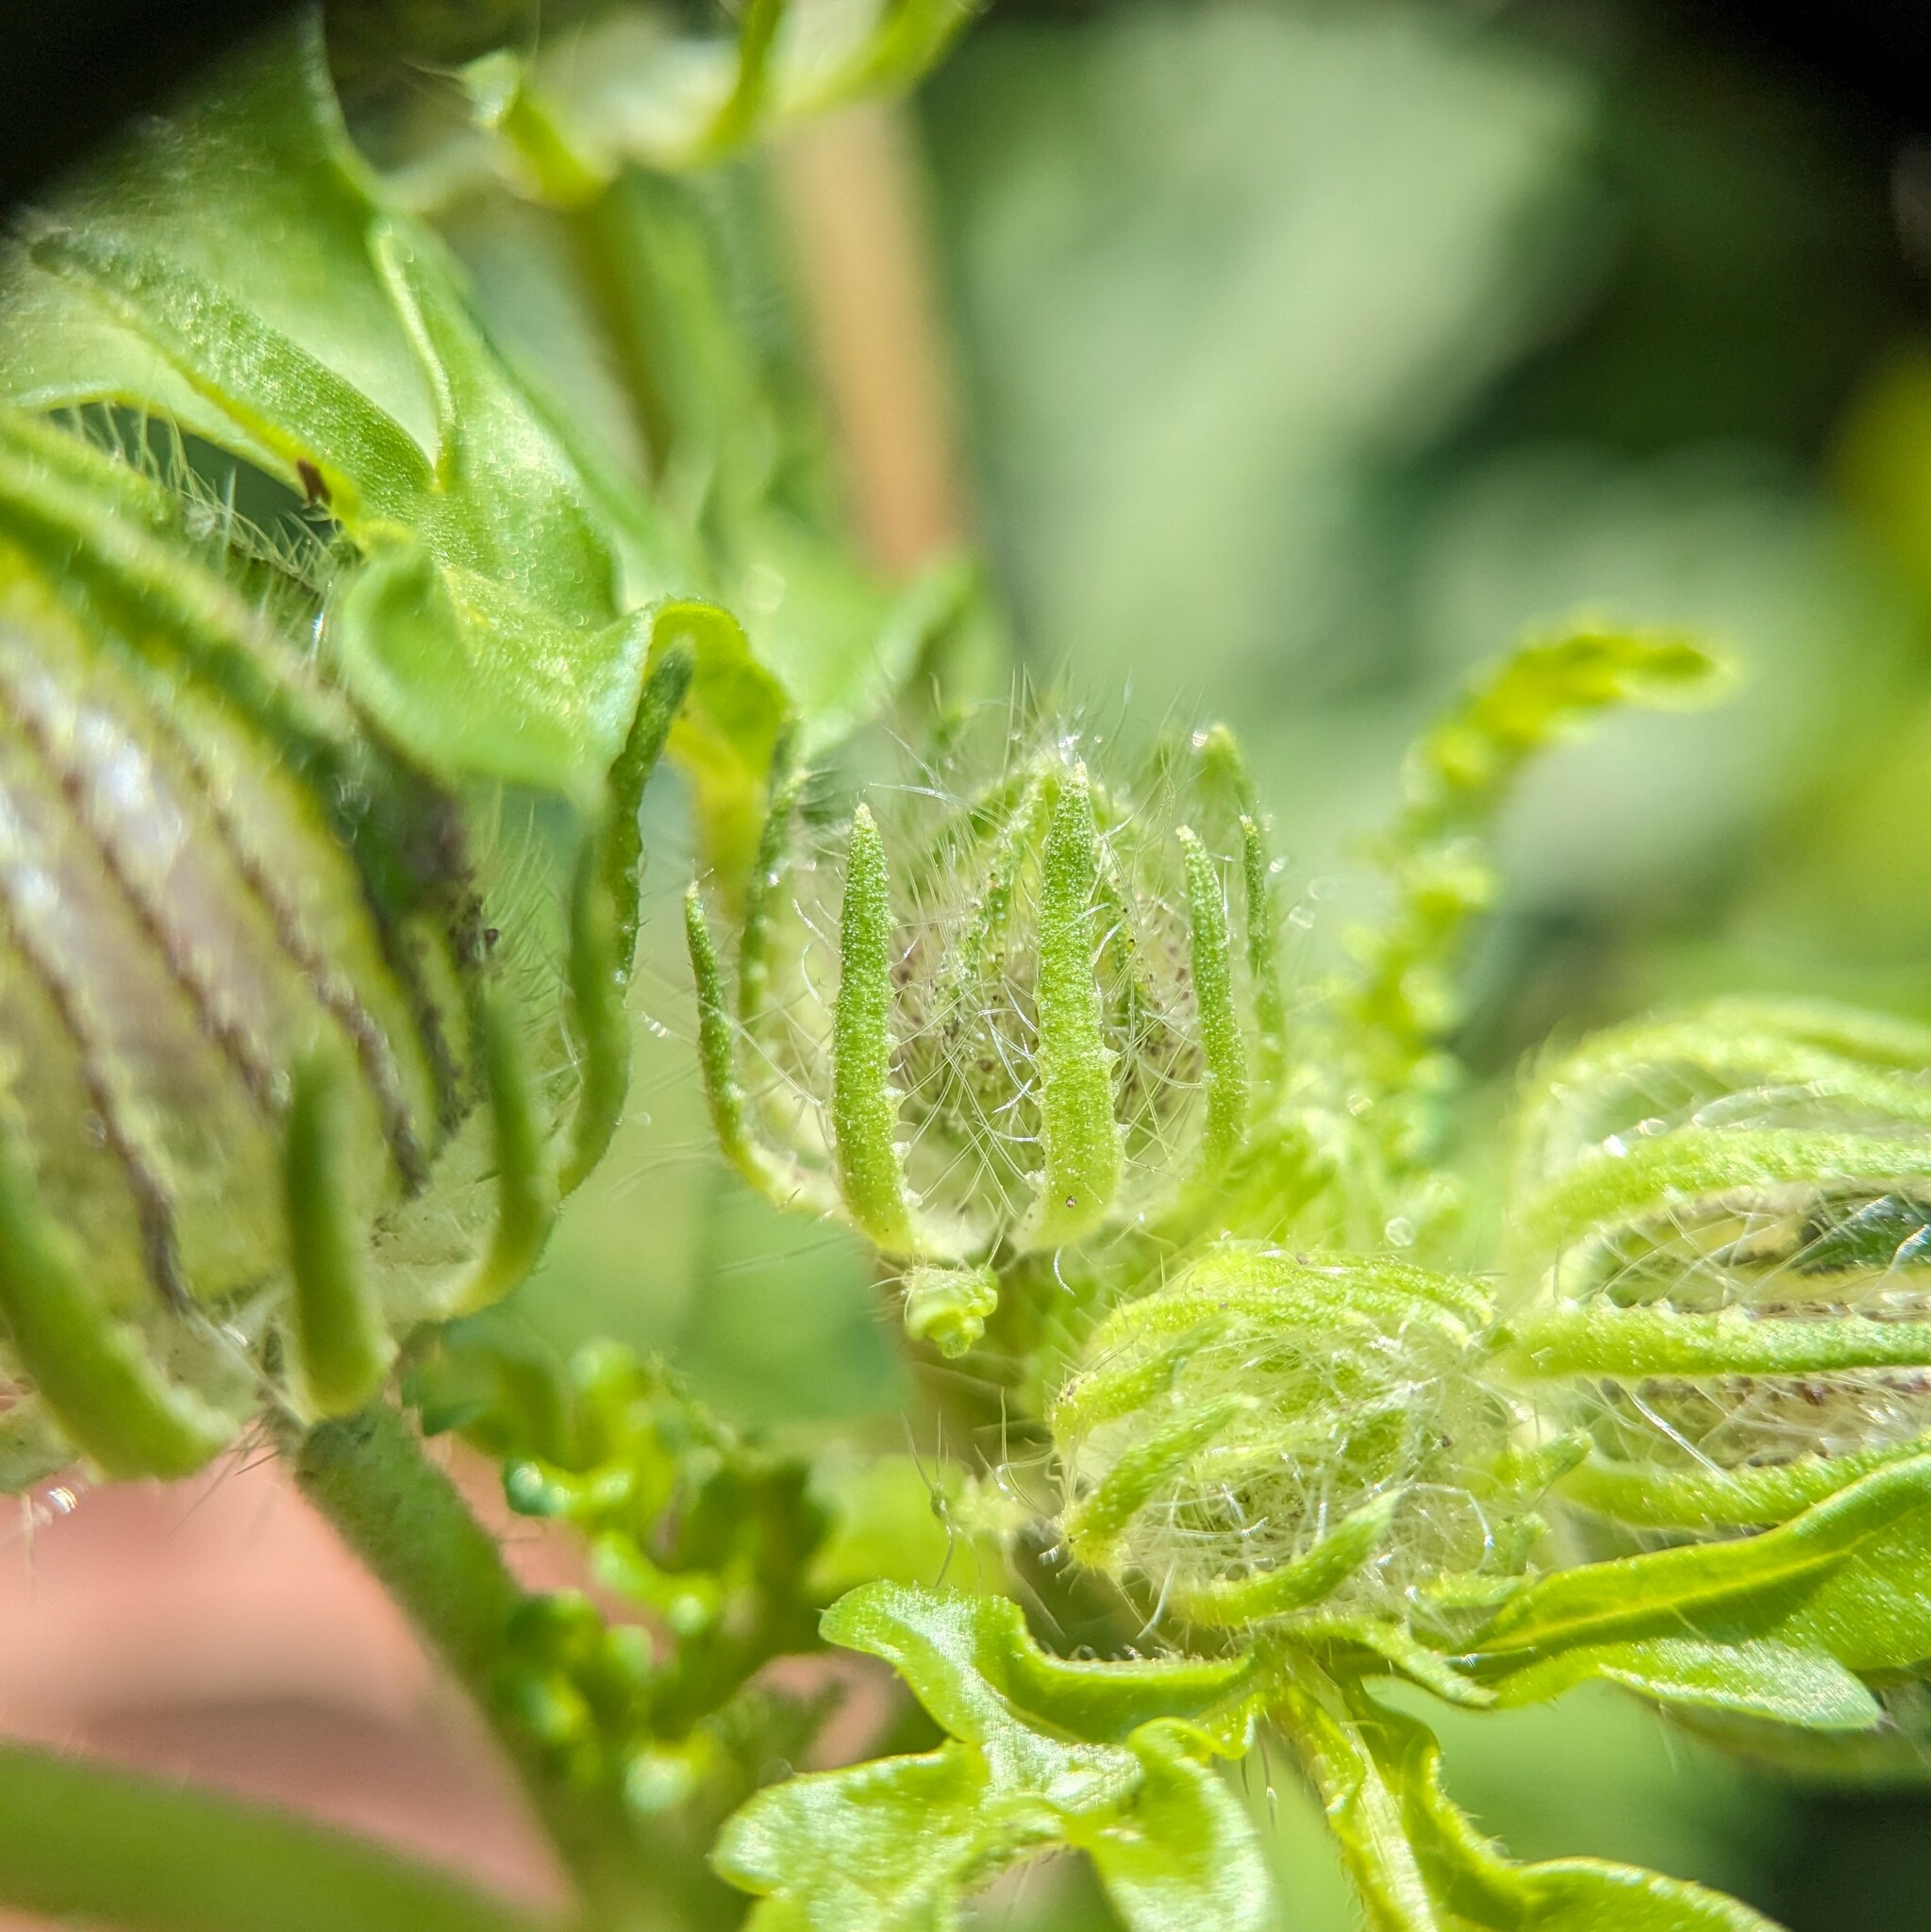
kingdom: Plantae
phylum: Tracheophyta
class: Magnoliopsida
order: Malvales
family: Malvaceae
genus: Hibiscus
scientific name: Hibiscus trionum
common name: Bladder ketmia
